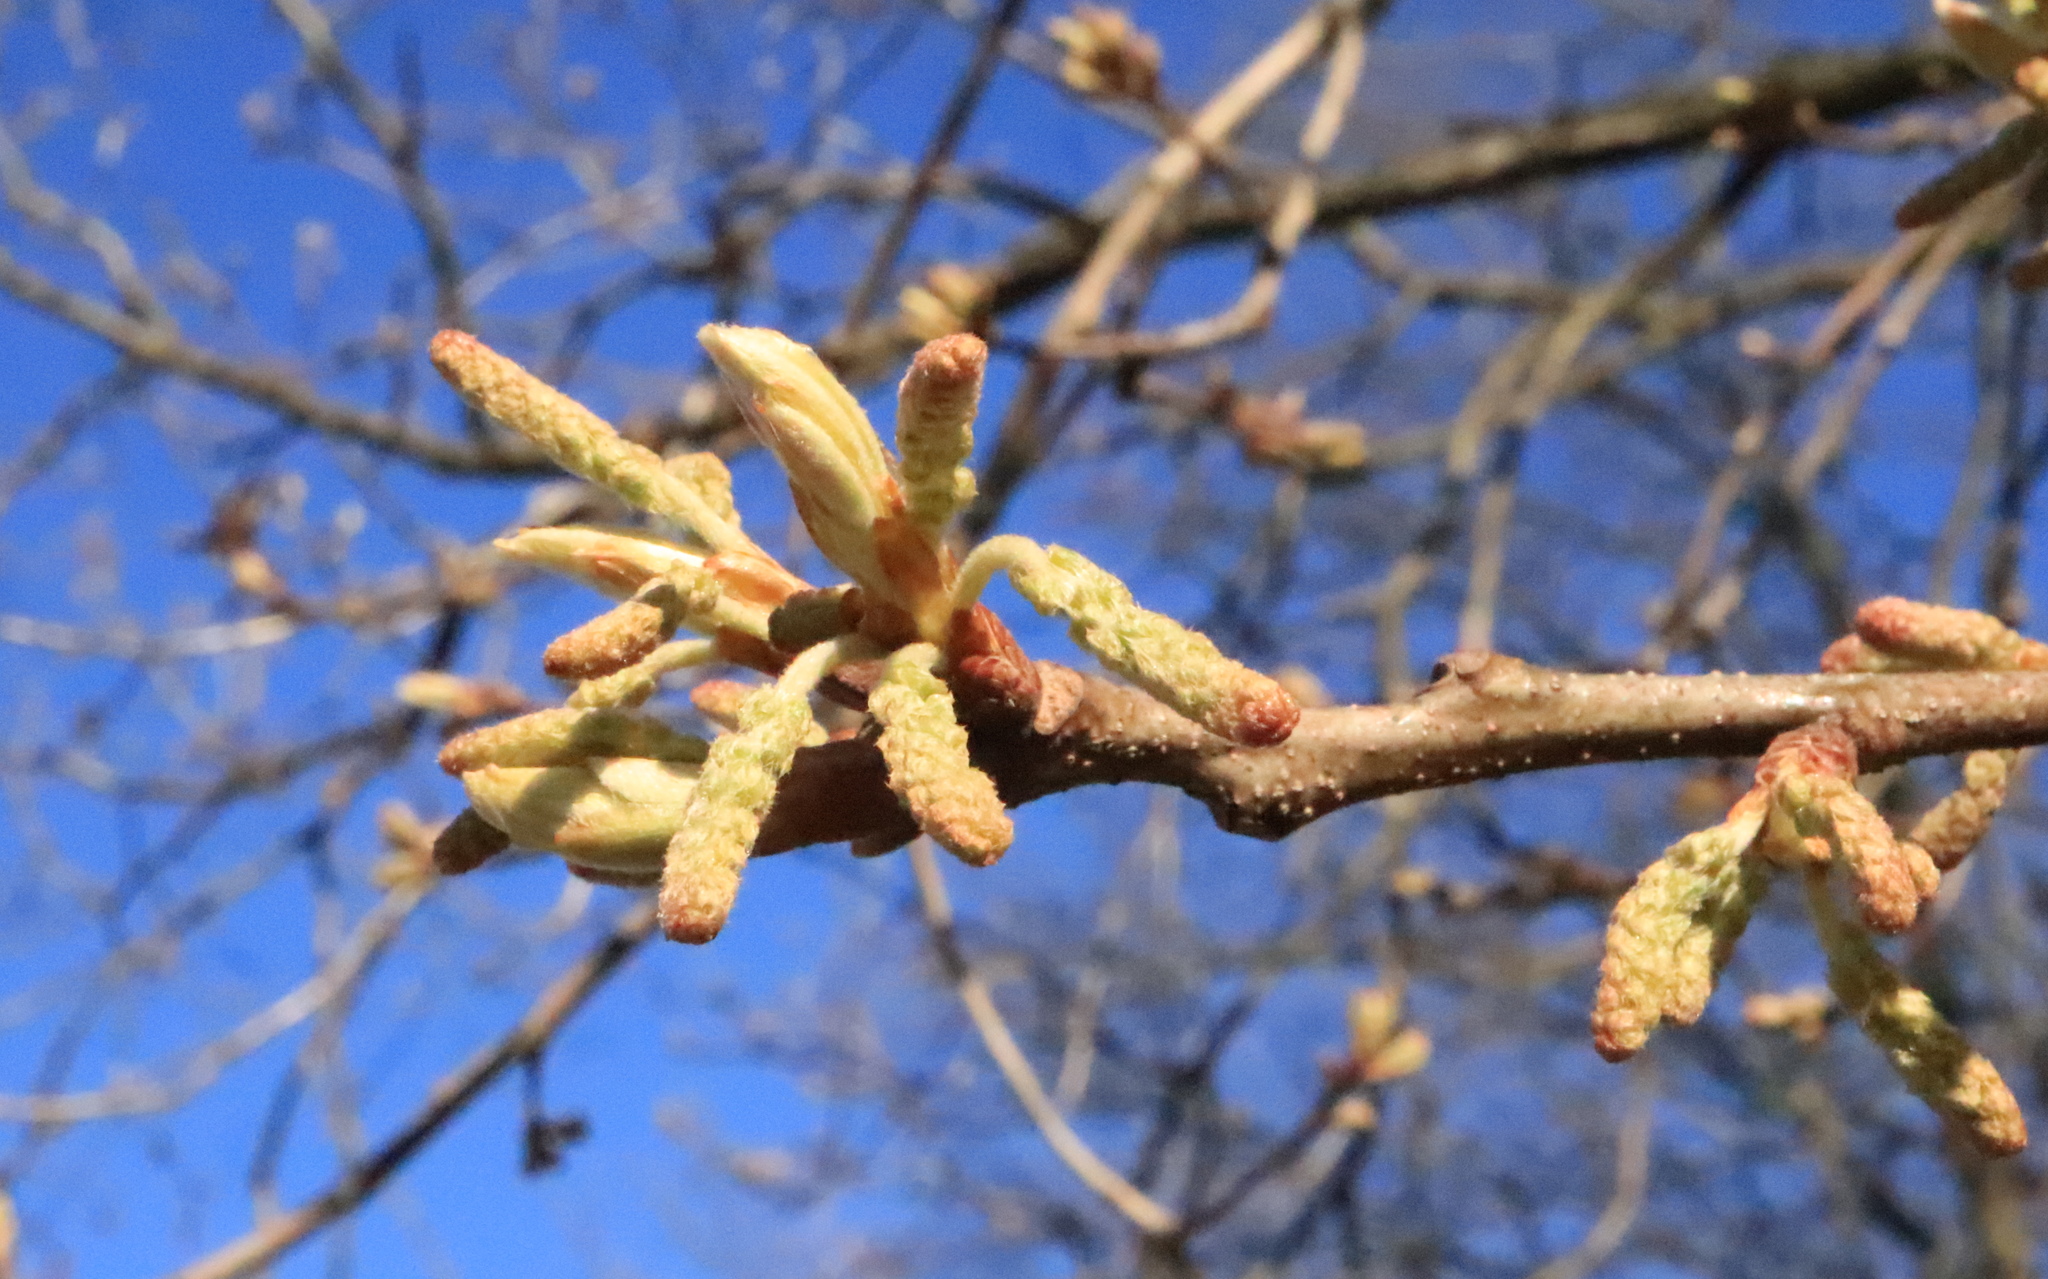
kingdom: Plantae
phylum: Tracheophyta
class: Magnoliopsida
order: Fagales
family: Fagaceae
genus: Quercus
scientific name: Quercus alba
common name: White oak
